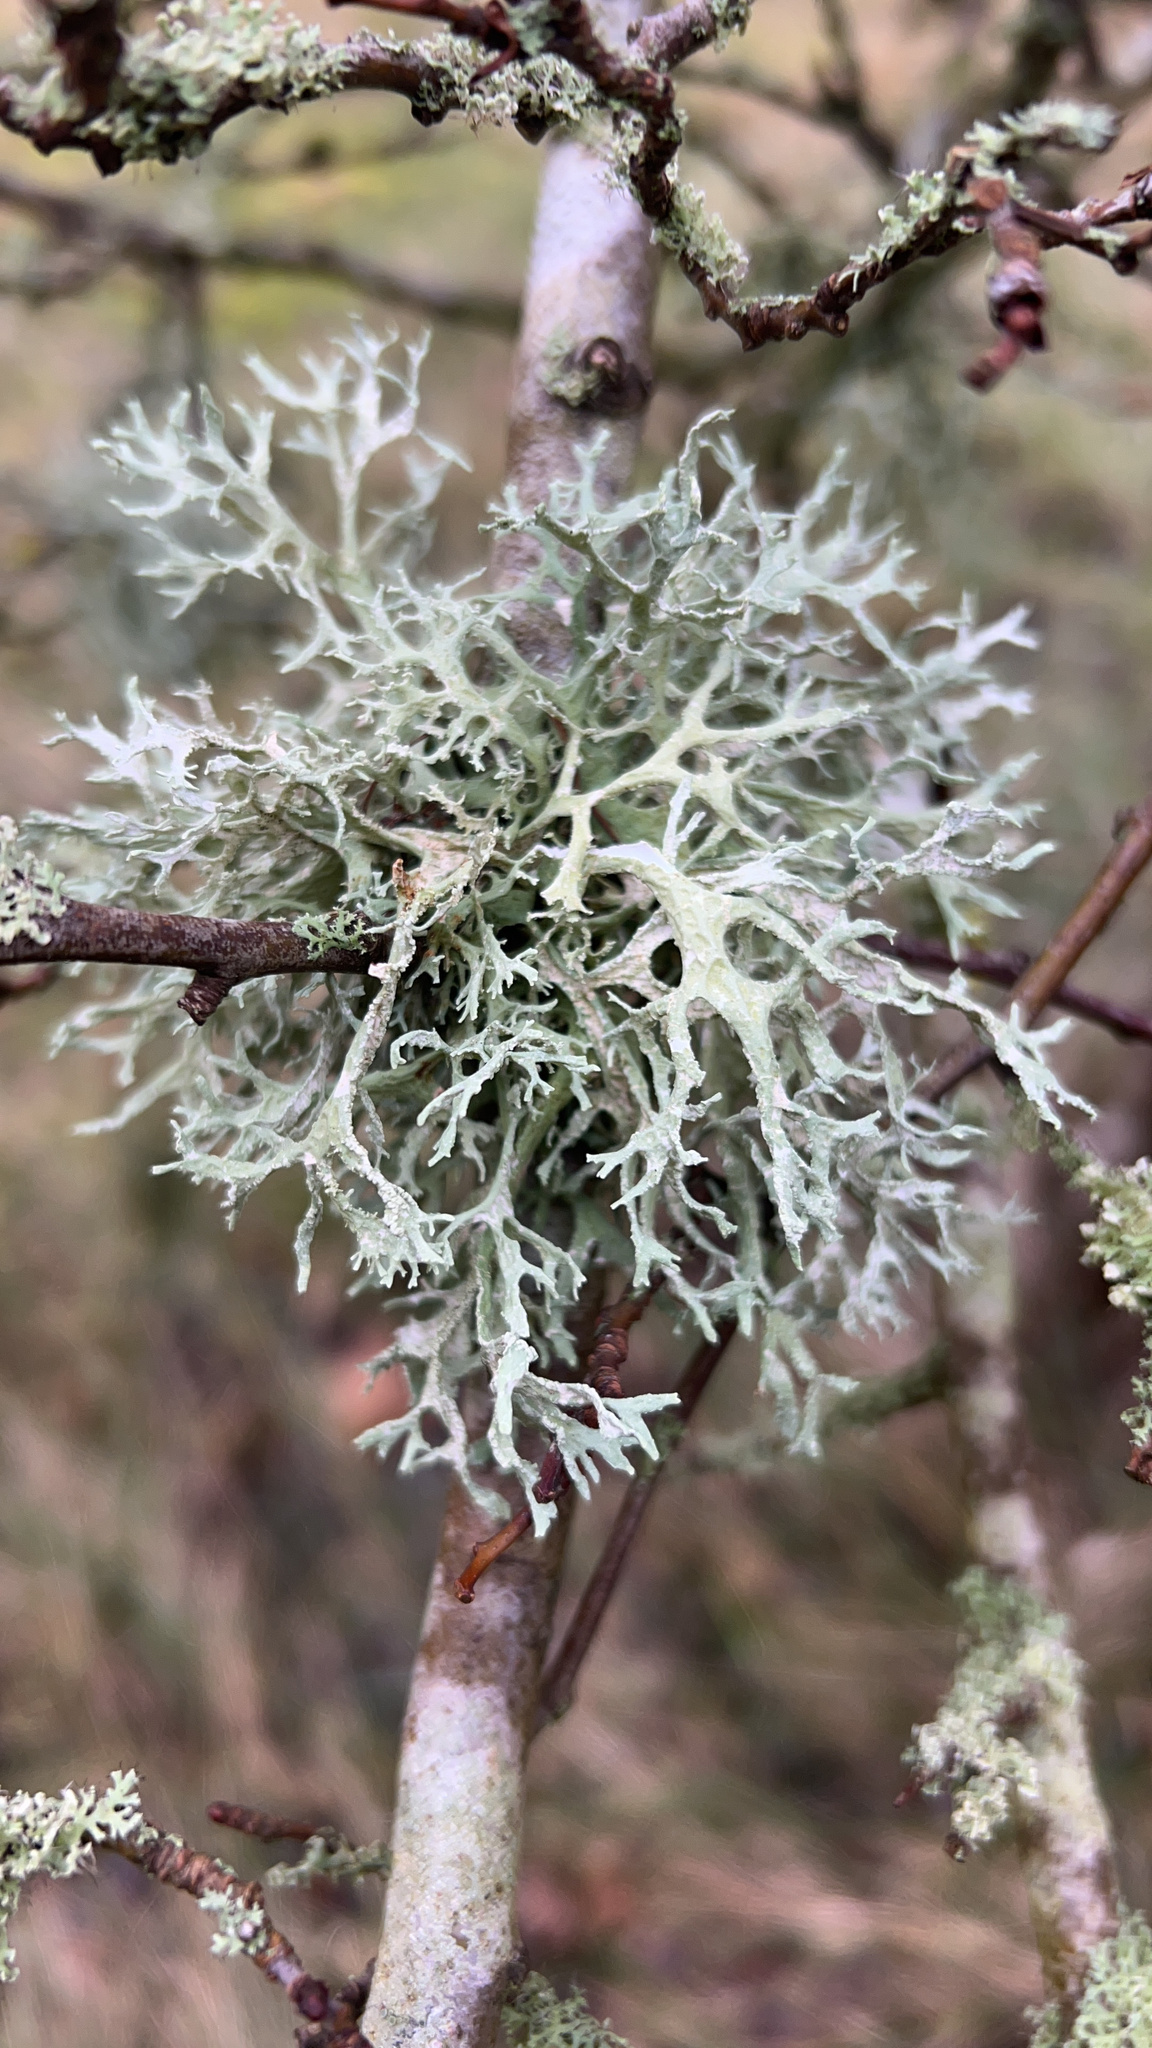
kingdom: Fungi
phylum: Ascomycota
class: Lecanoromycetes
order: Lecanorales
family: Parmeliaceae
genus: Evernia
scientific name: Evernia prunastri
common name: Oak moss
